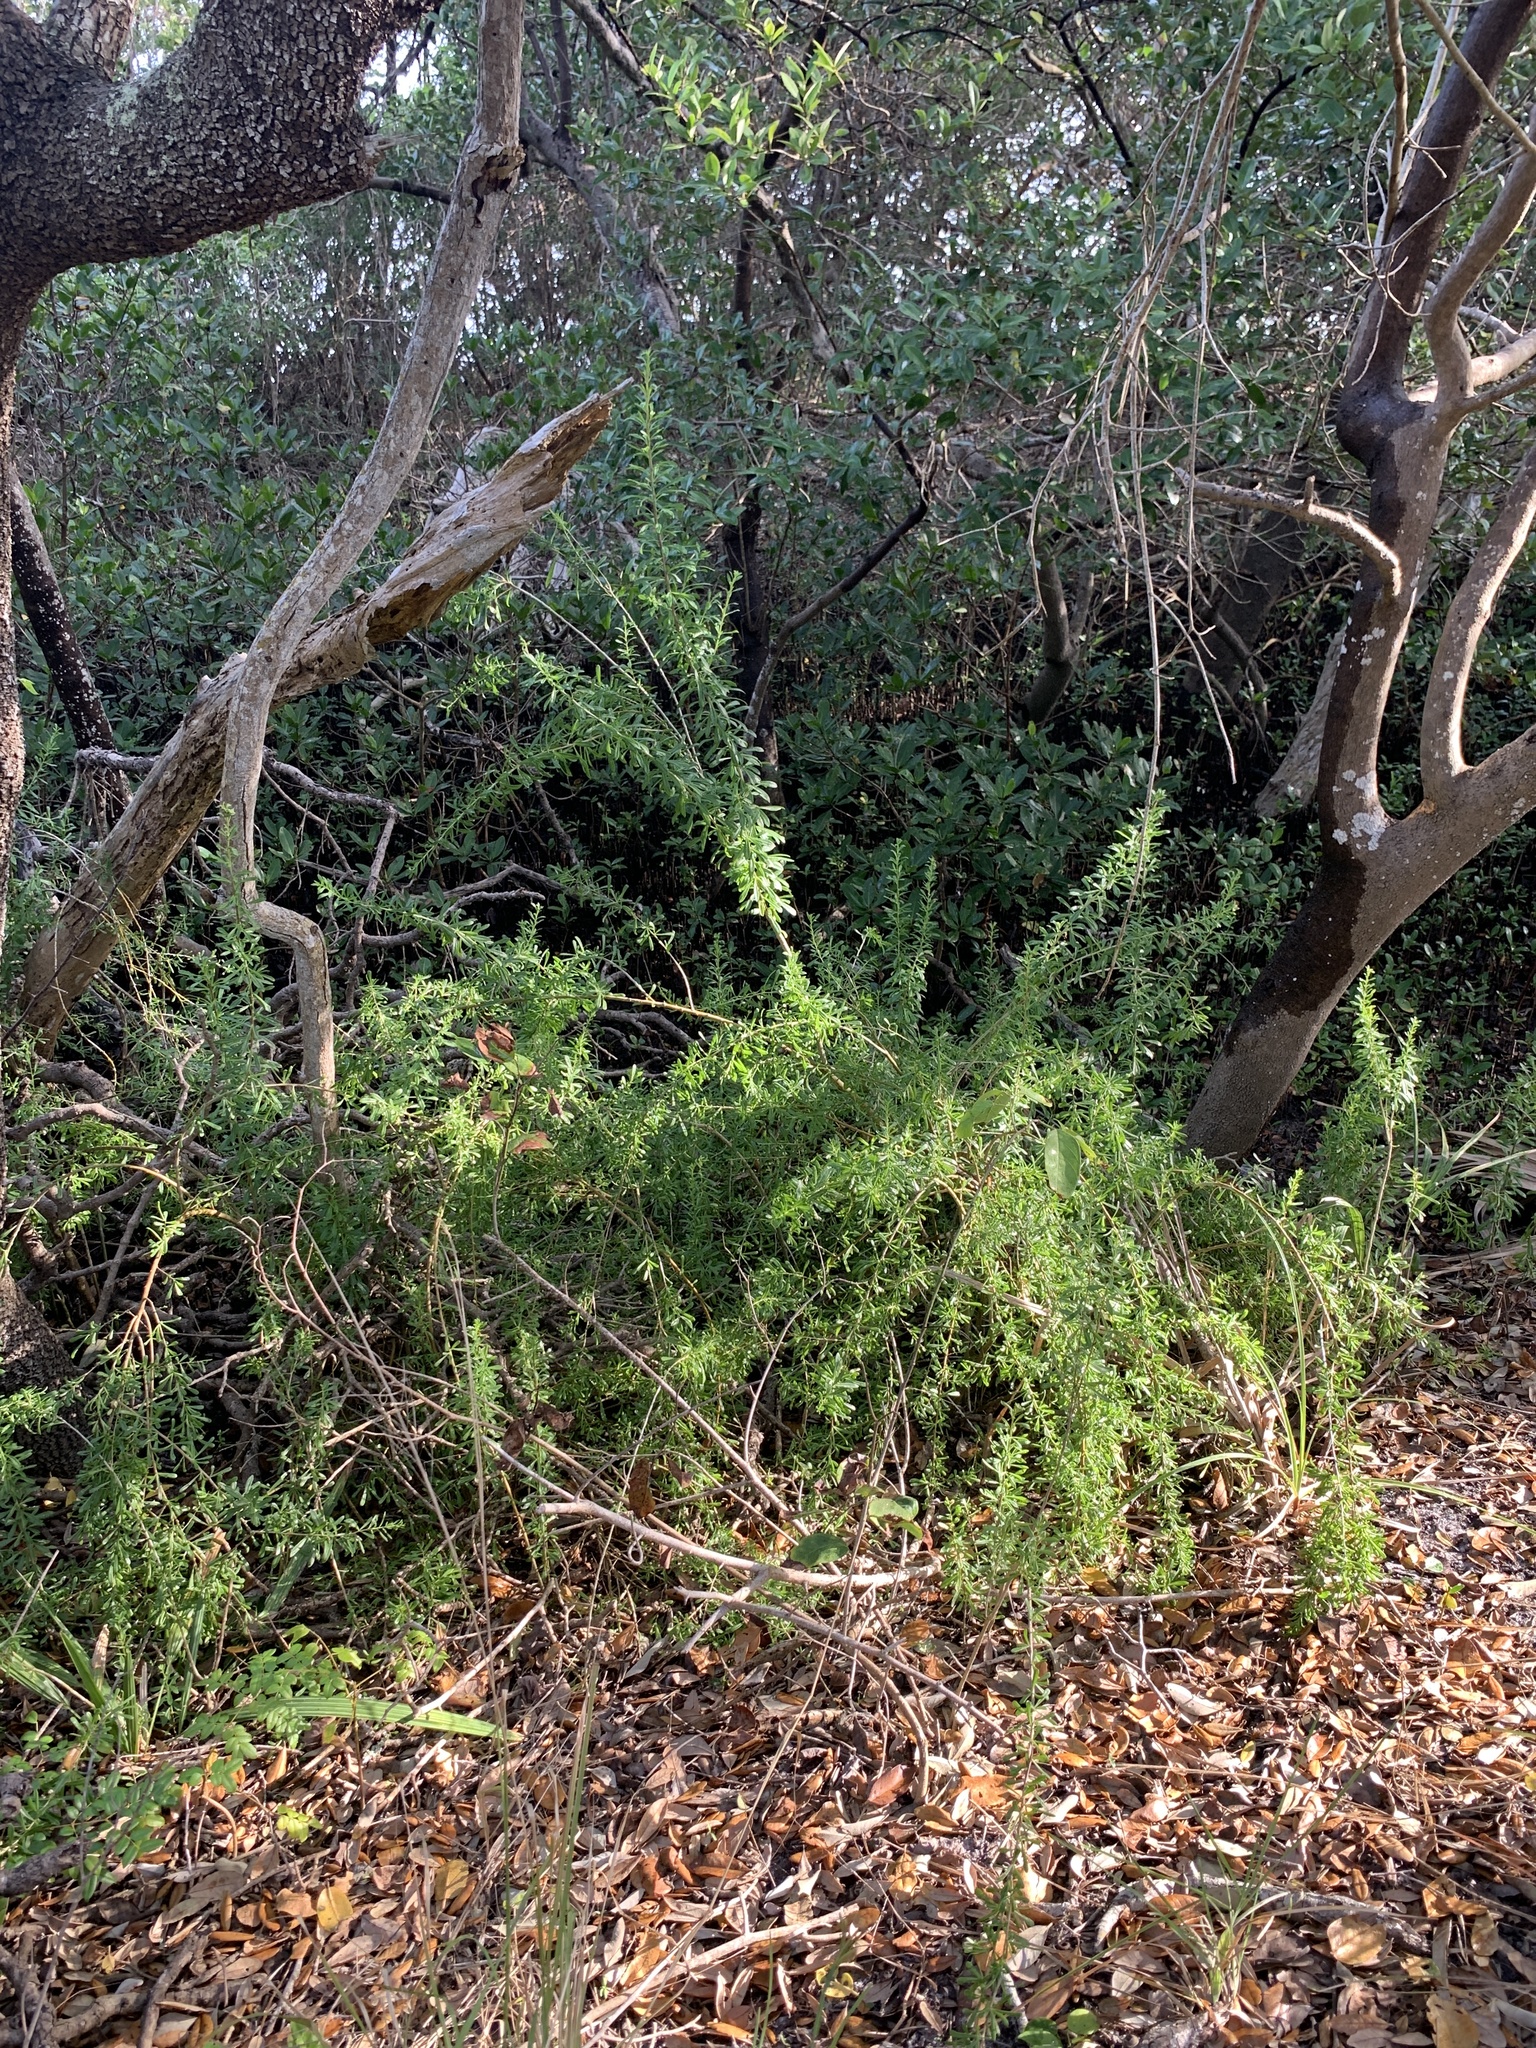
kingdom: Plantae
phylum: Tracheophyta
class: Magnoliopsida
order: Solanales
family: Solanaceae
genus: Lycium
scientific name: Lycium carolinianum
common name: Christmasberry
